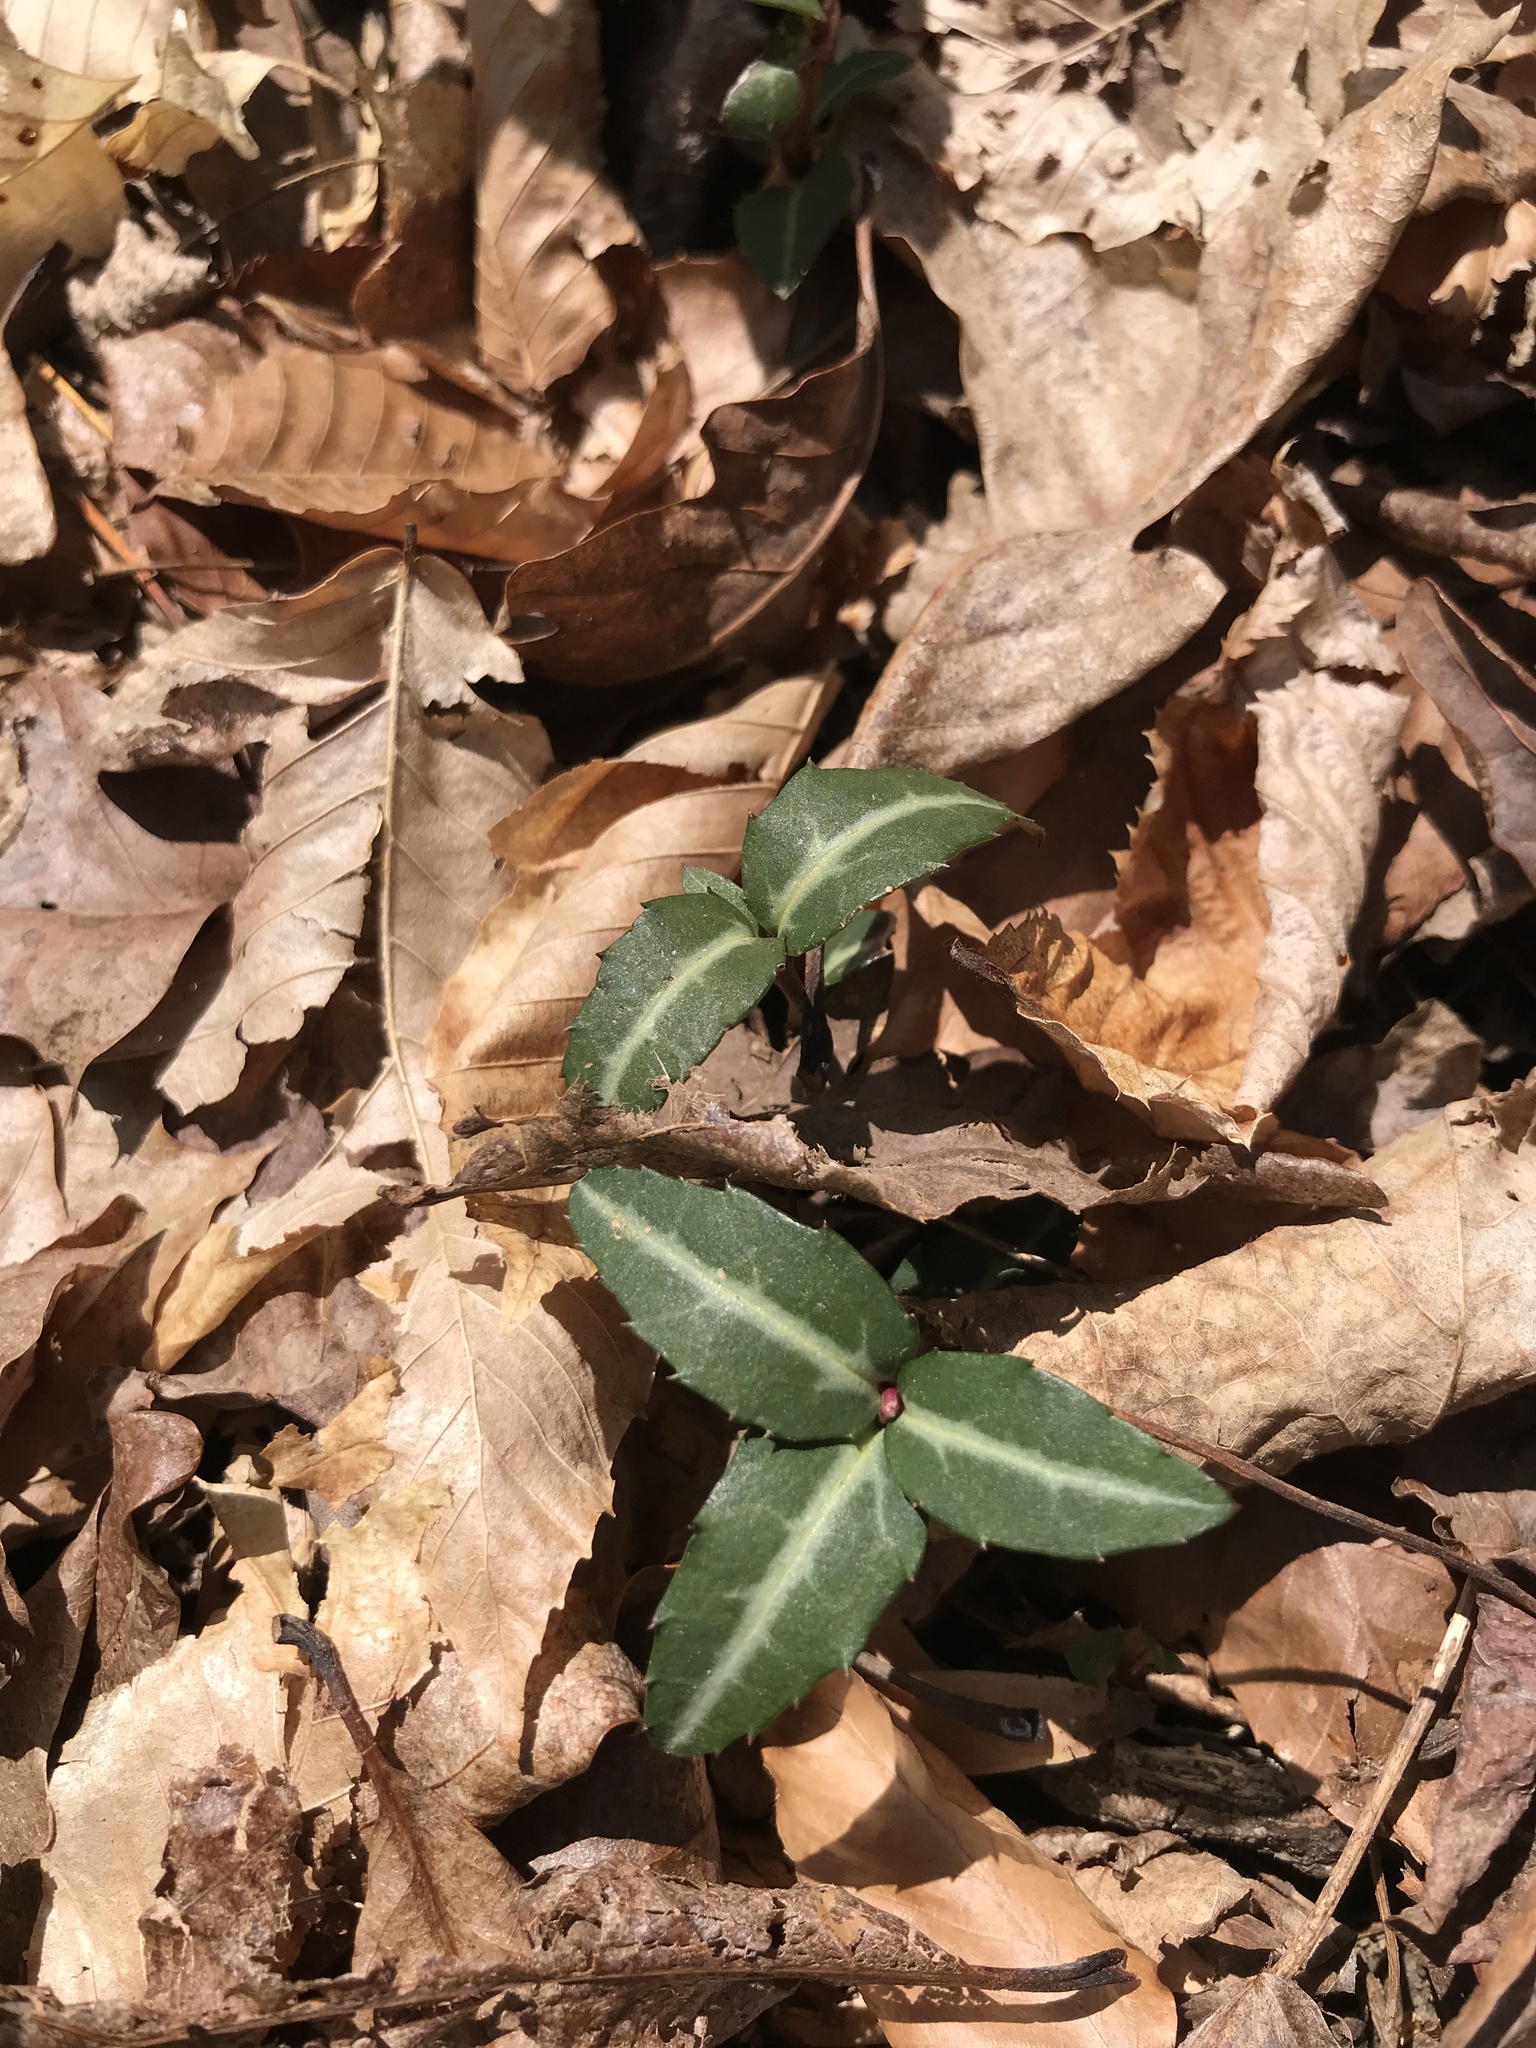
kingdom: Plantae
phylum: Tracheophyta
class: Magnoliopsida
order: Ericales
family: Ericaceae
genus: Chimaphila
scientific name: Chimaphila maculata
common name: Spotted pipsissewa
